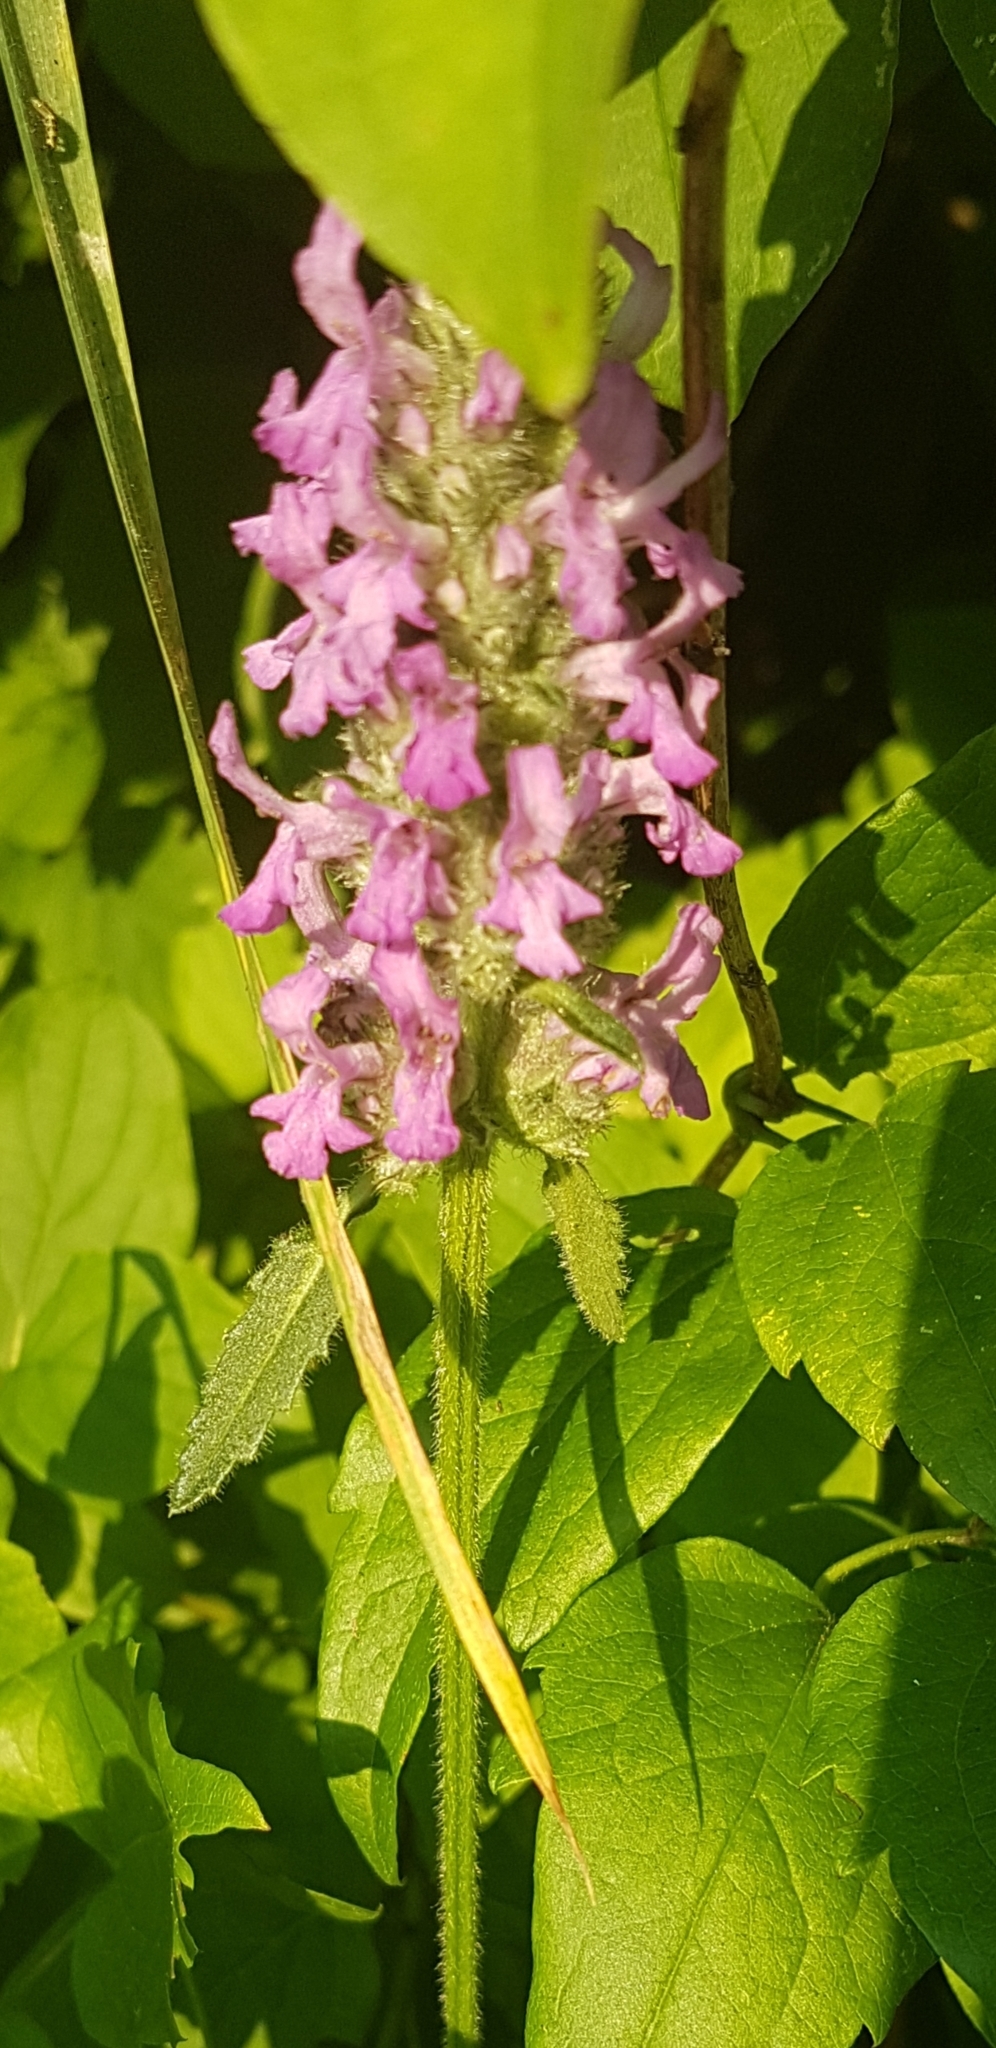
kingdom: Plantae
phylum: Tracheophyta
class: Magnoliopsida
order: Lamiales
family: Lamiaceae
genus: Betonica
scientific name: Betonica officinalis
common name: Bishop's-wort
